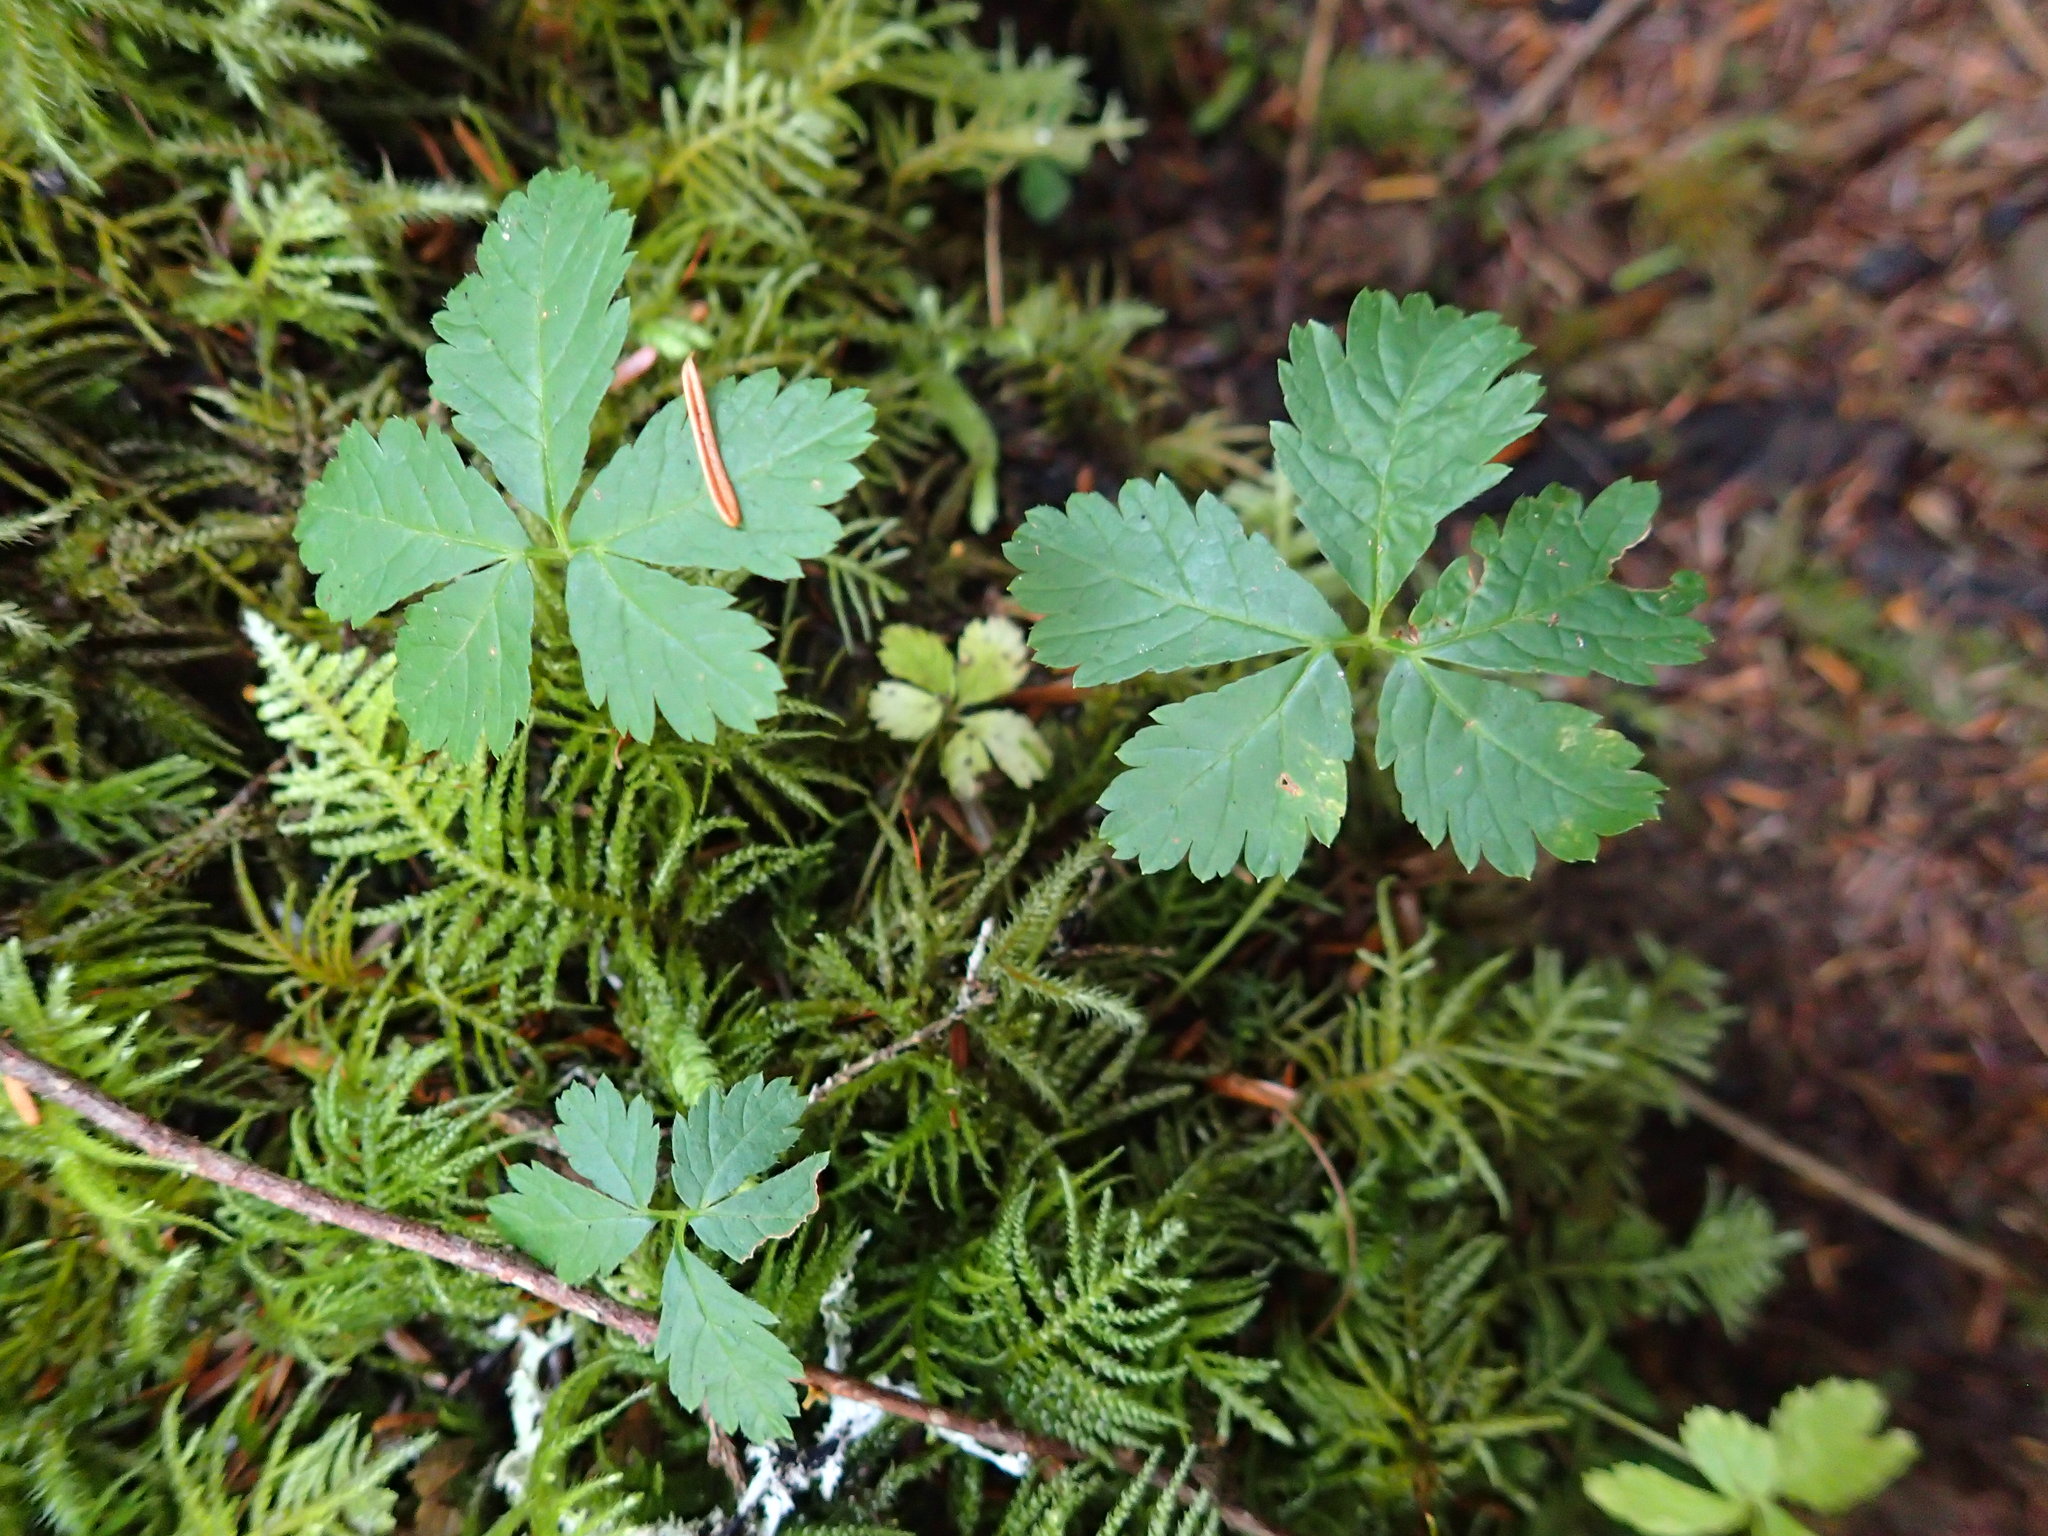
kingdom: Plantae
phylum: Tracheophyta
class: Magnoliopsida
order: Rosales
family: Rosaceae
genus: Rubus
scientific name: Rubus pedatus
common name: Creeping raspberry
